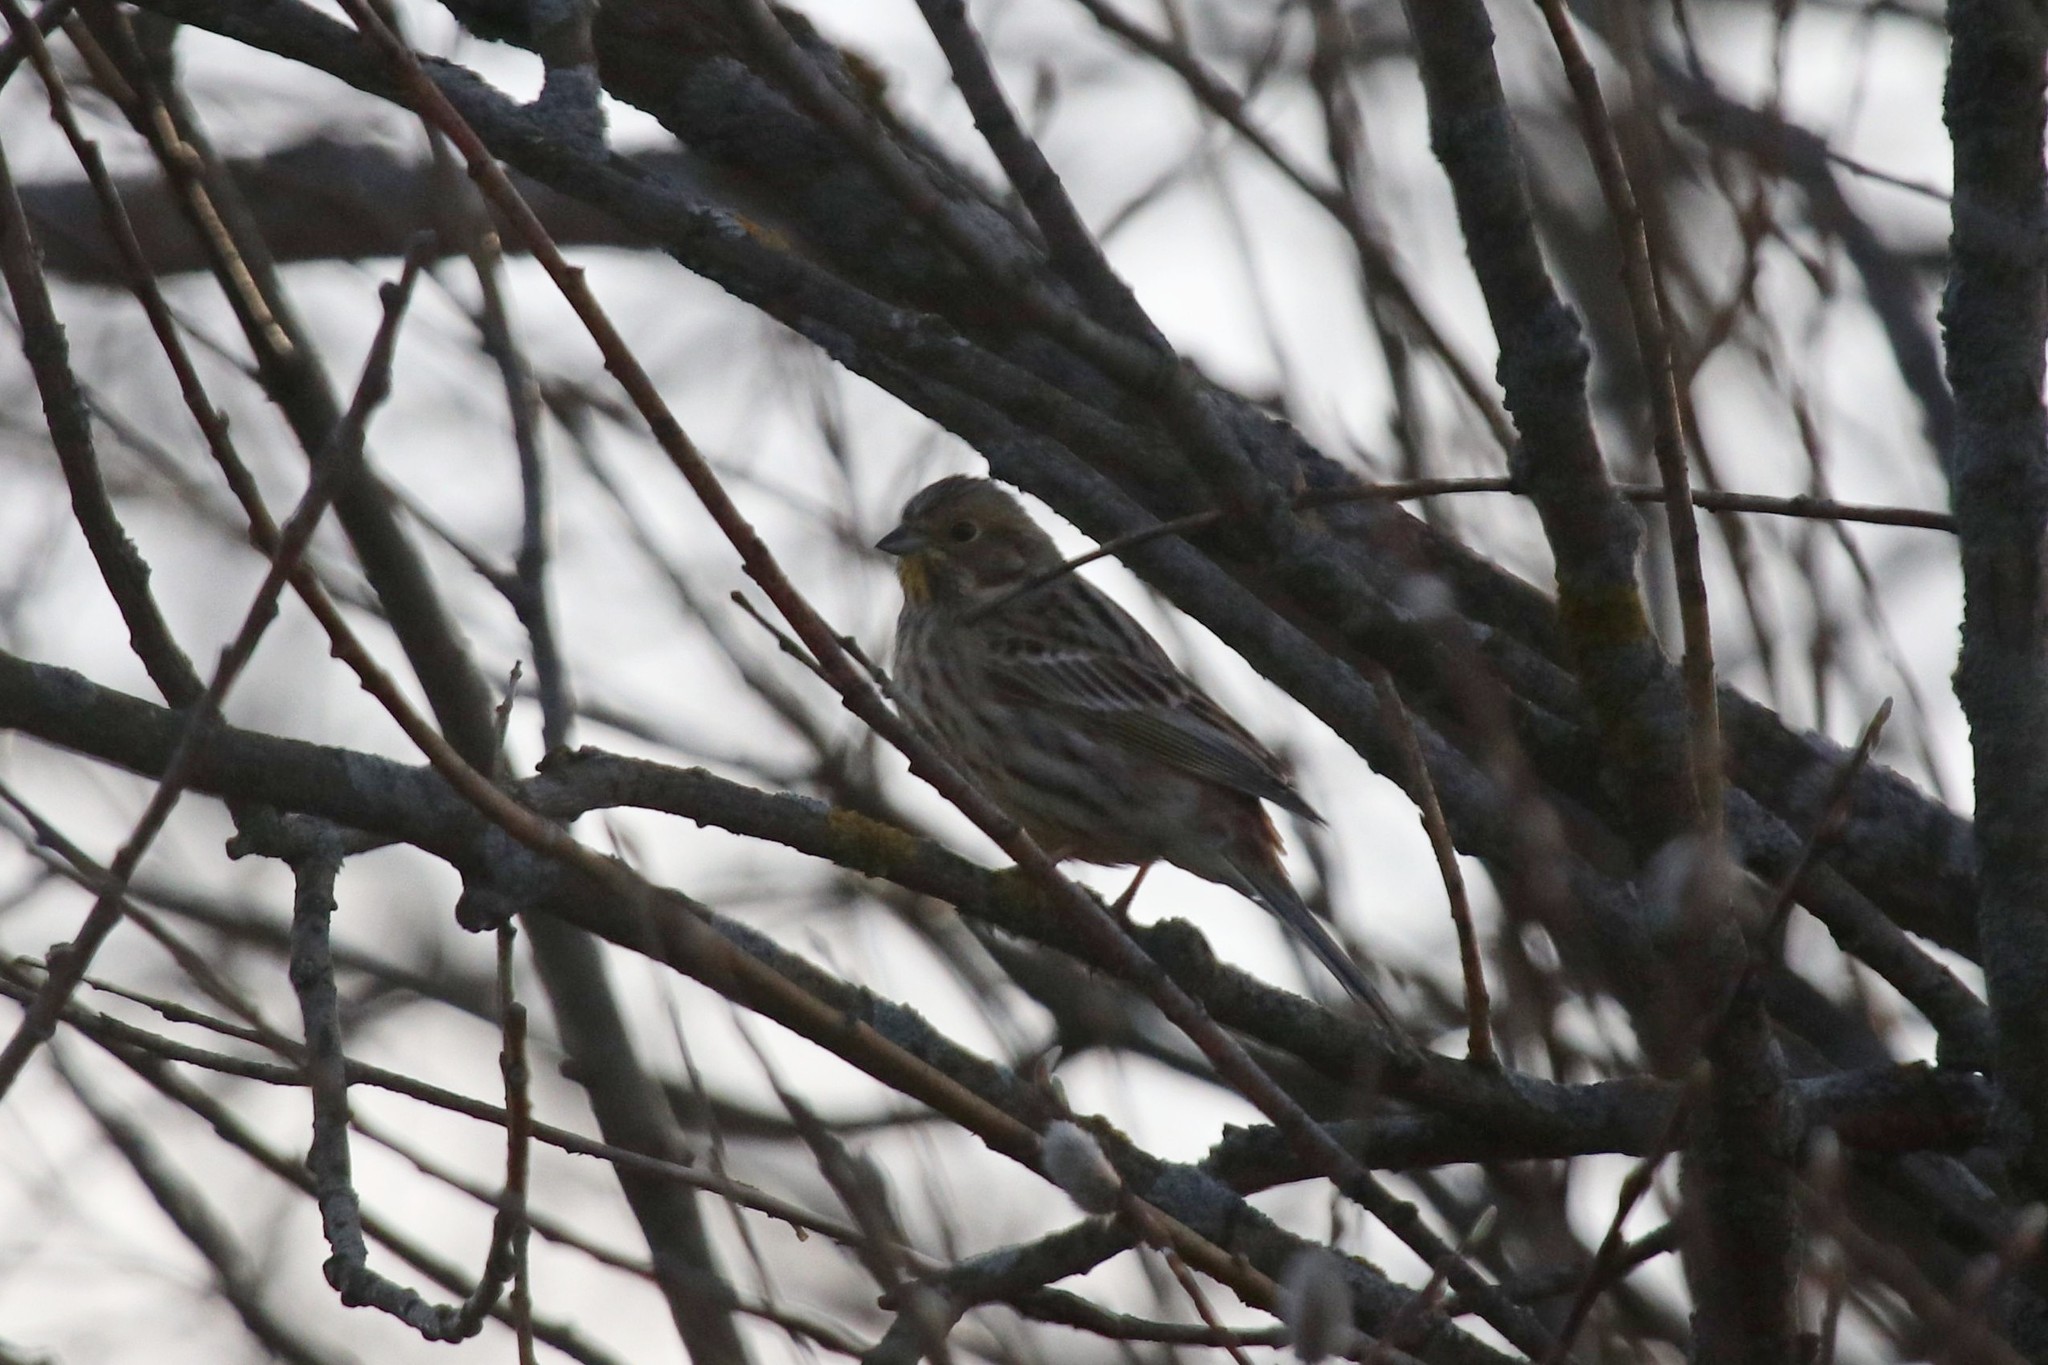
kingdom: Animalia
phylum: Chordata
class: Aves
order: Passeriformes
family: Emberizidae
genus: Emberiza
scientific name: Emberiza citrinella
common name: Yellowhammer
